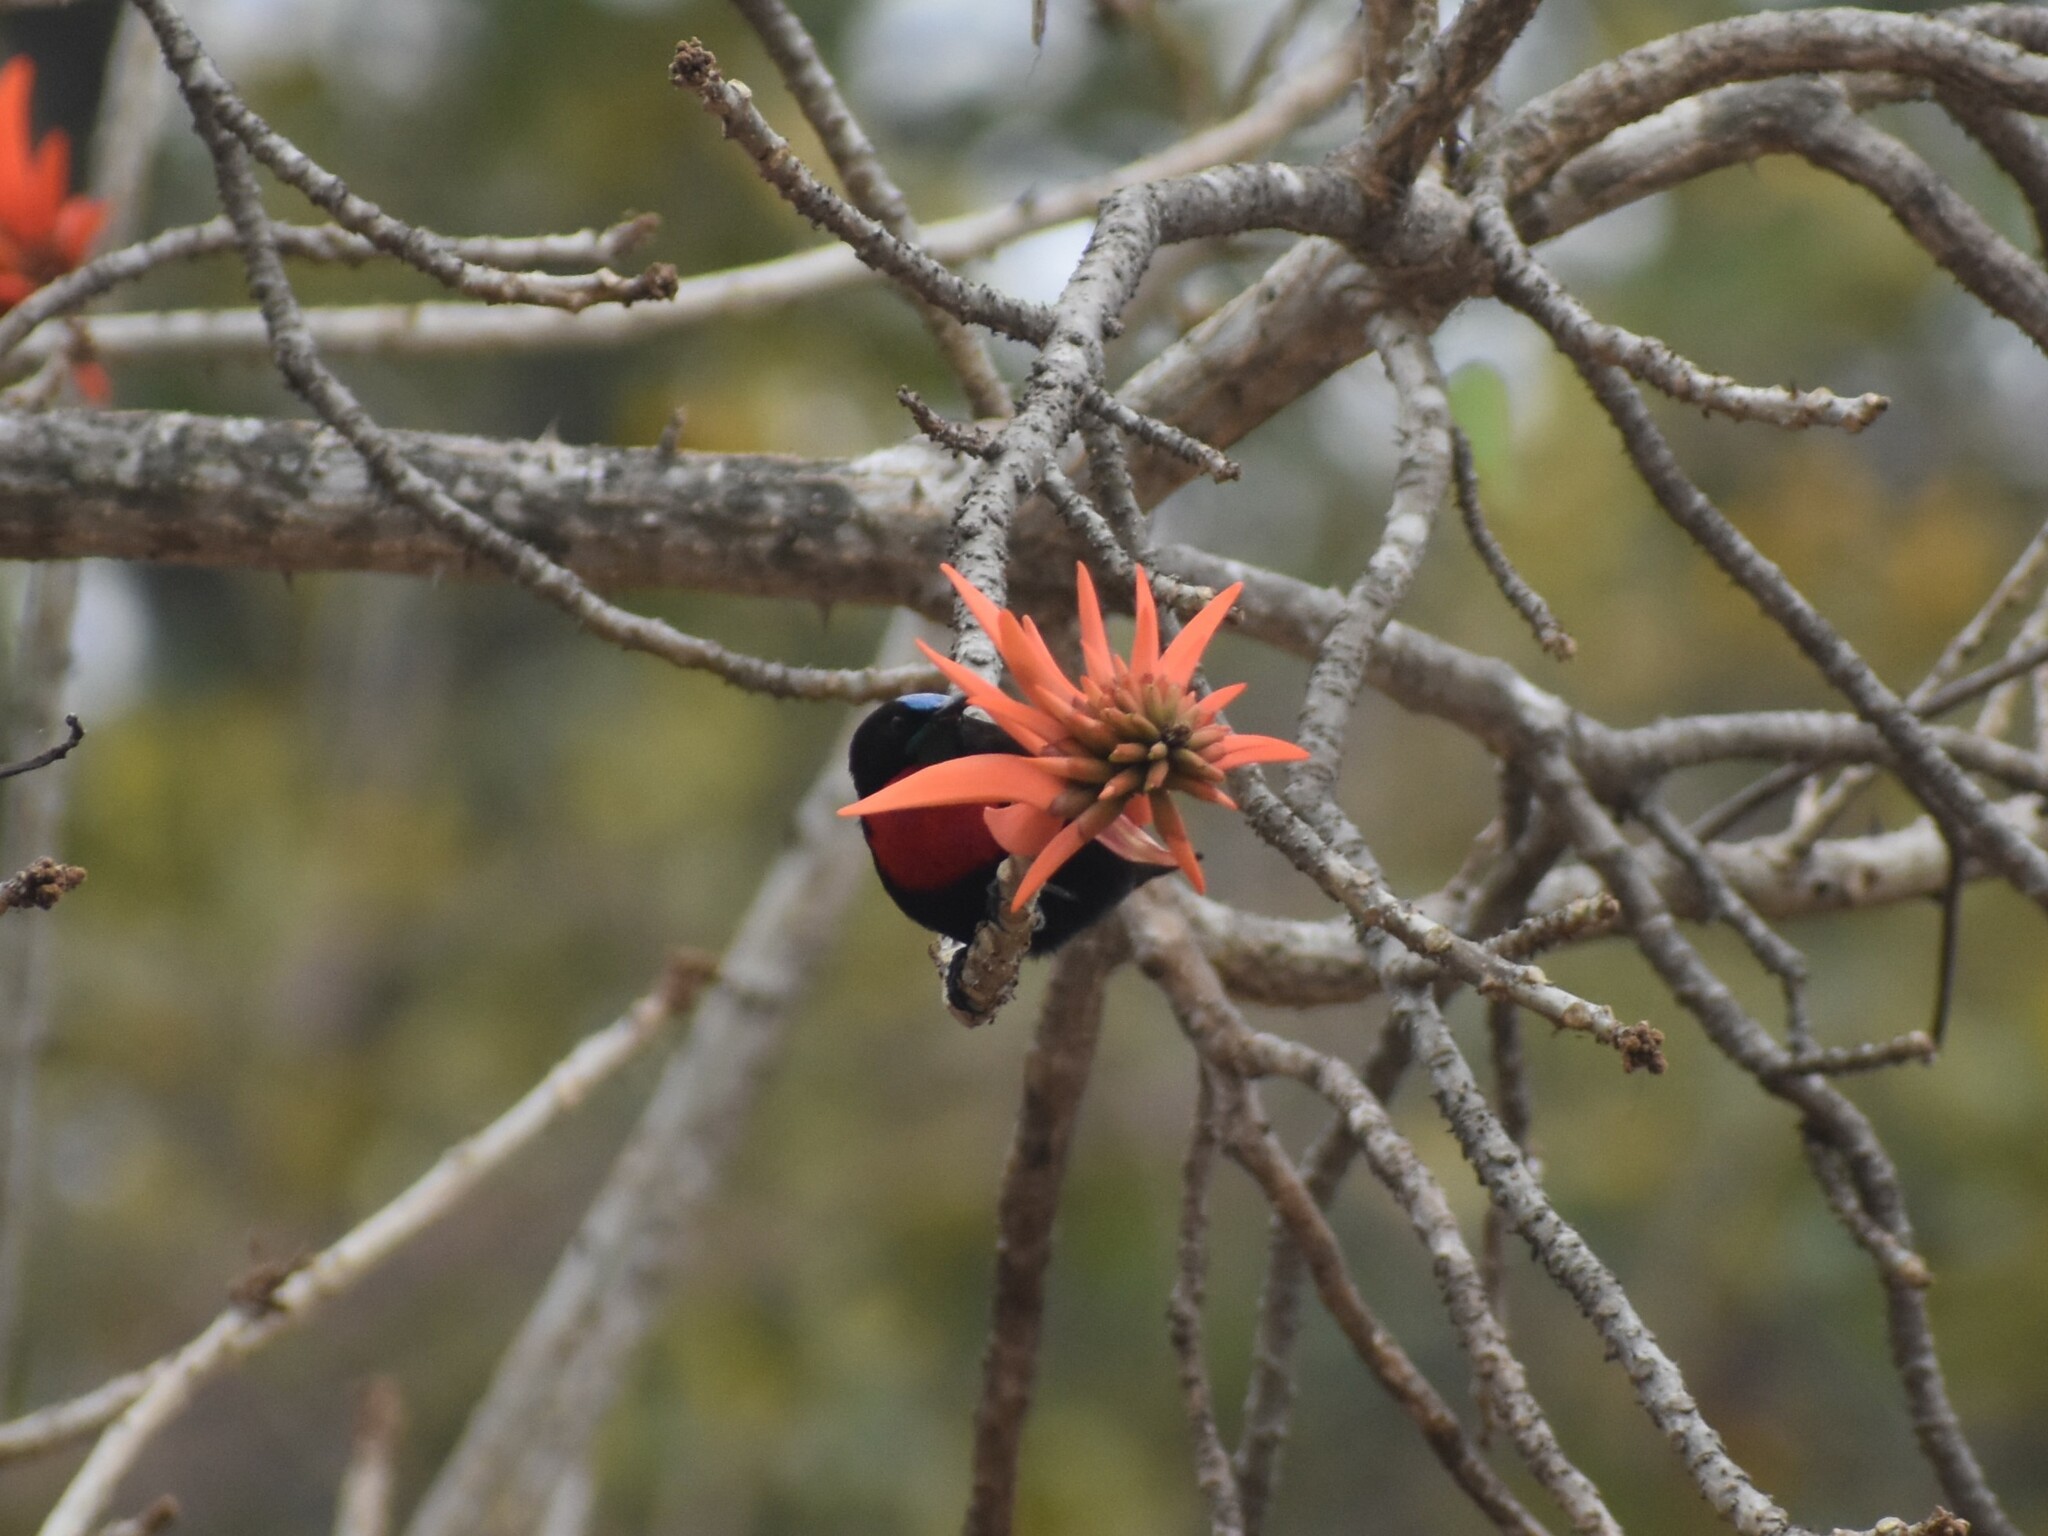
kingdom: Animalia
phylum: Chordata
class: Aves
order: Passeriformes
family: Nectariniidae
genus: Chalcomitra
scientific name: Chalcomitra senegalensis
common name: Scarlet-chested sunbird
